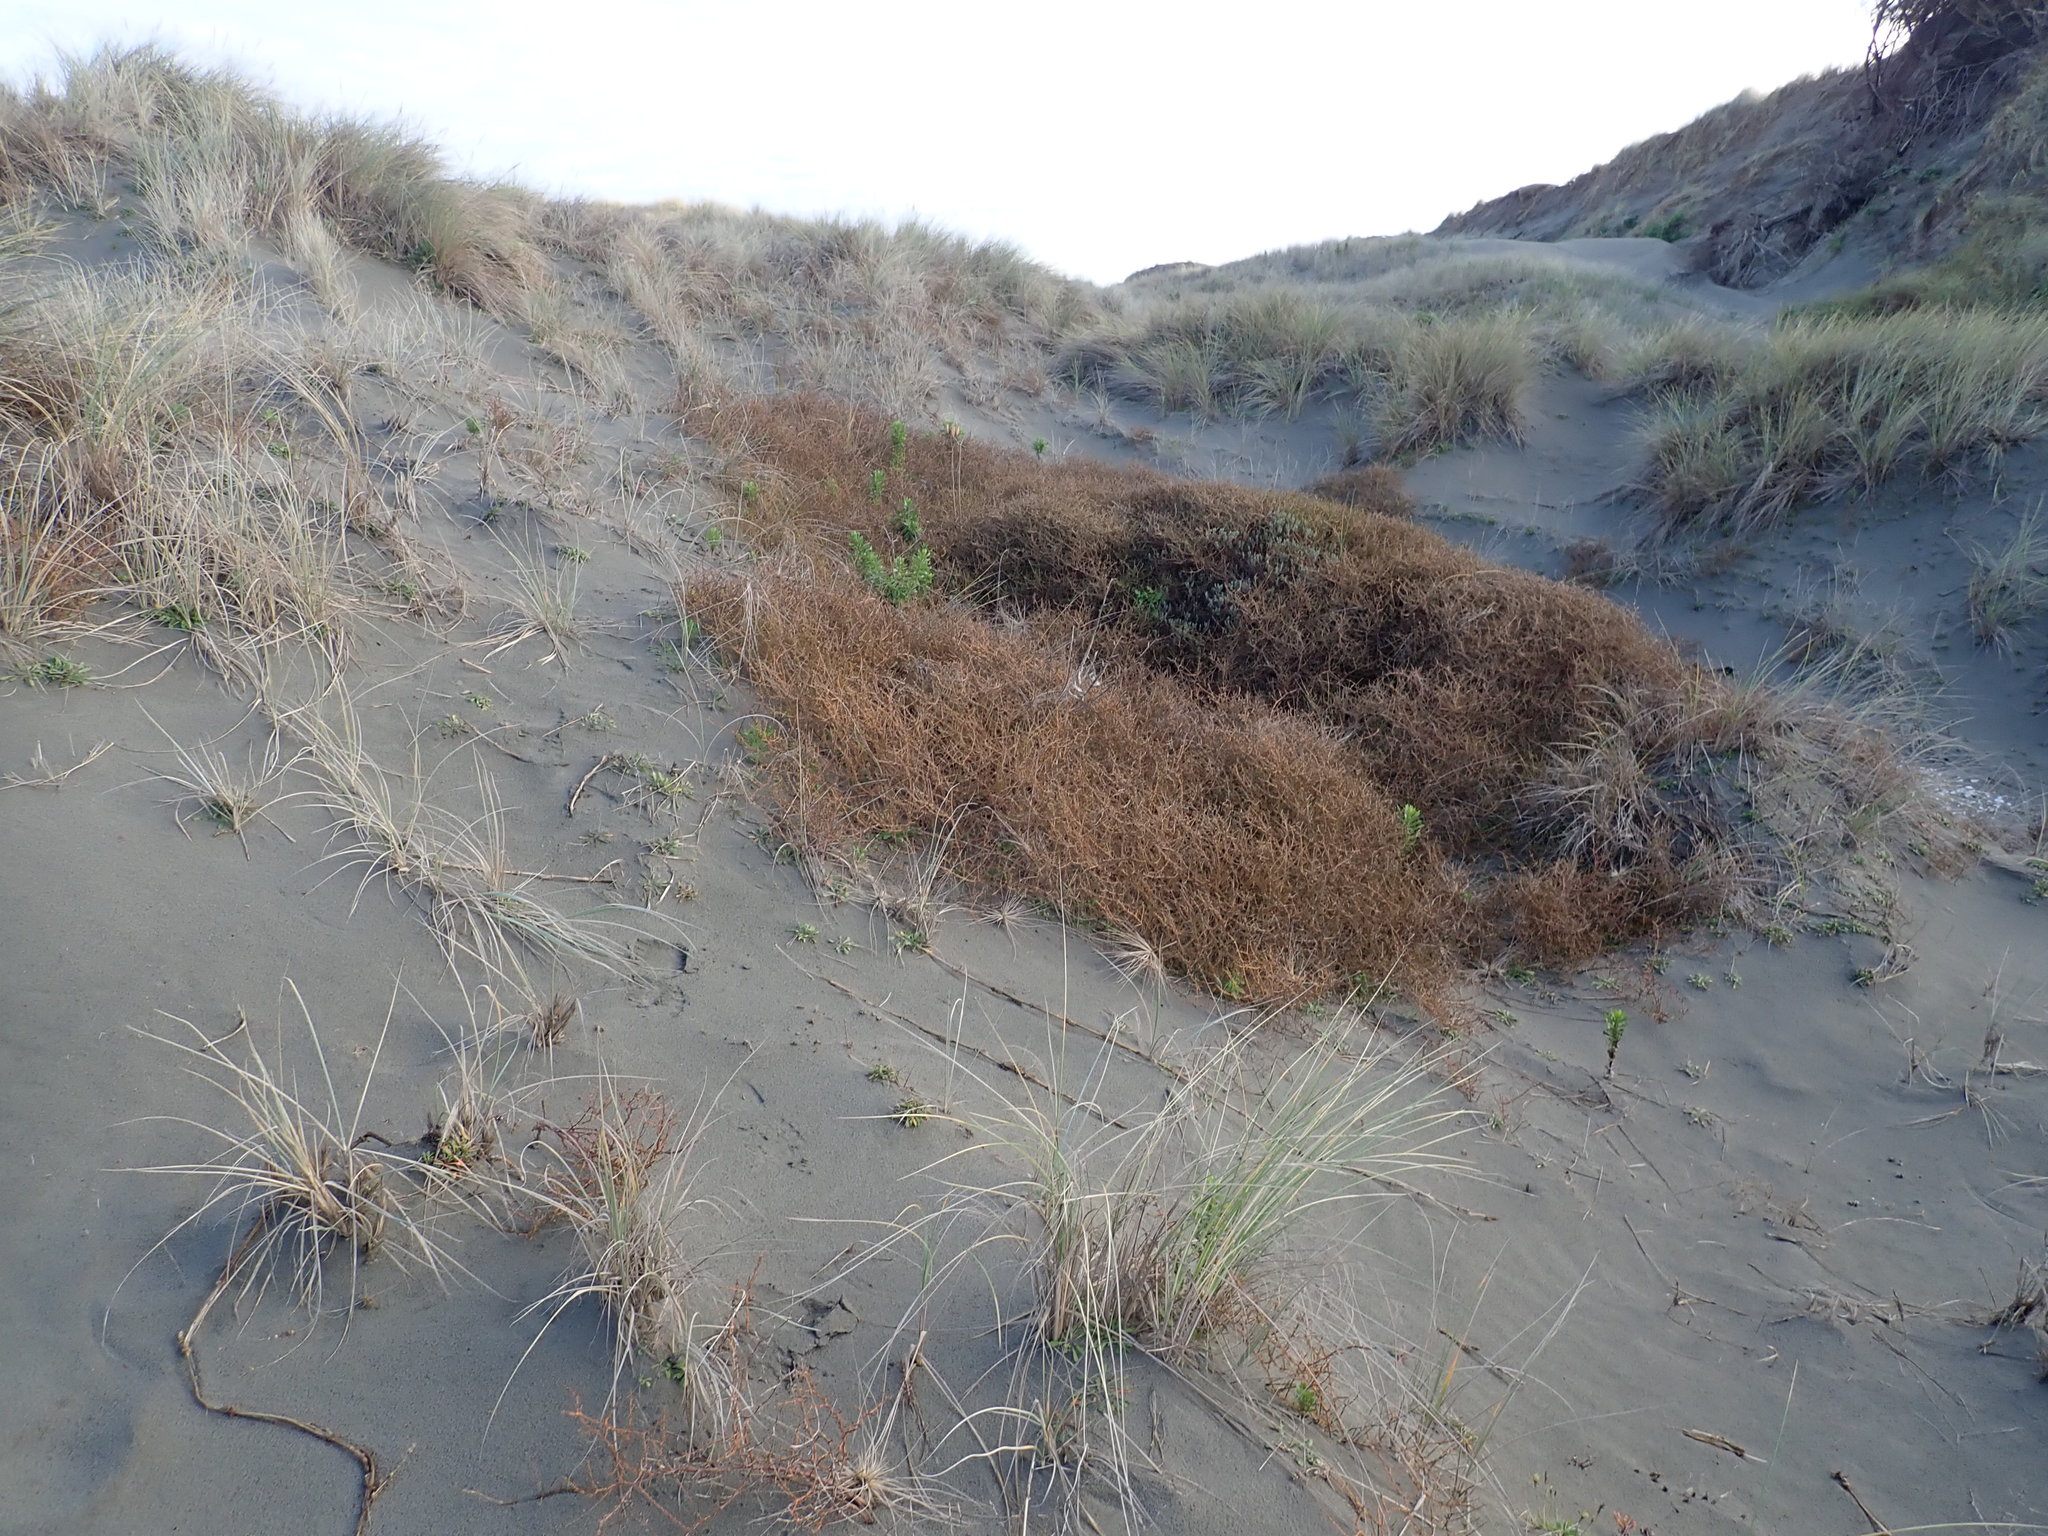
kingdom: Plantae
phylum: Tracheophyta
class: Magnoliopsida
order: Gentianales
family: Rubiaceae
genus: Coprosma
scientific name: Coprosma acerosa
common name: Sand coprosma
